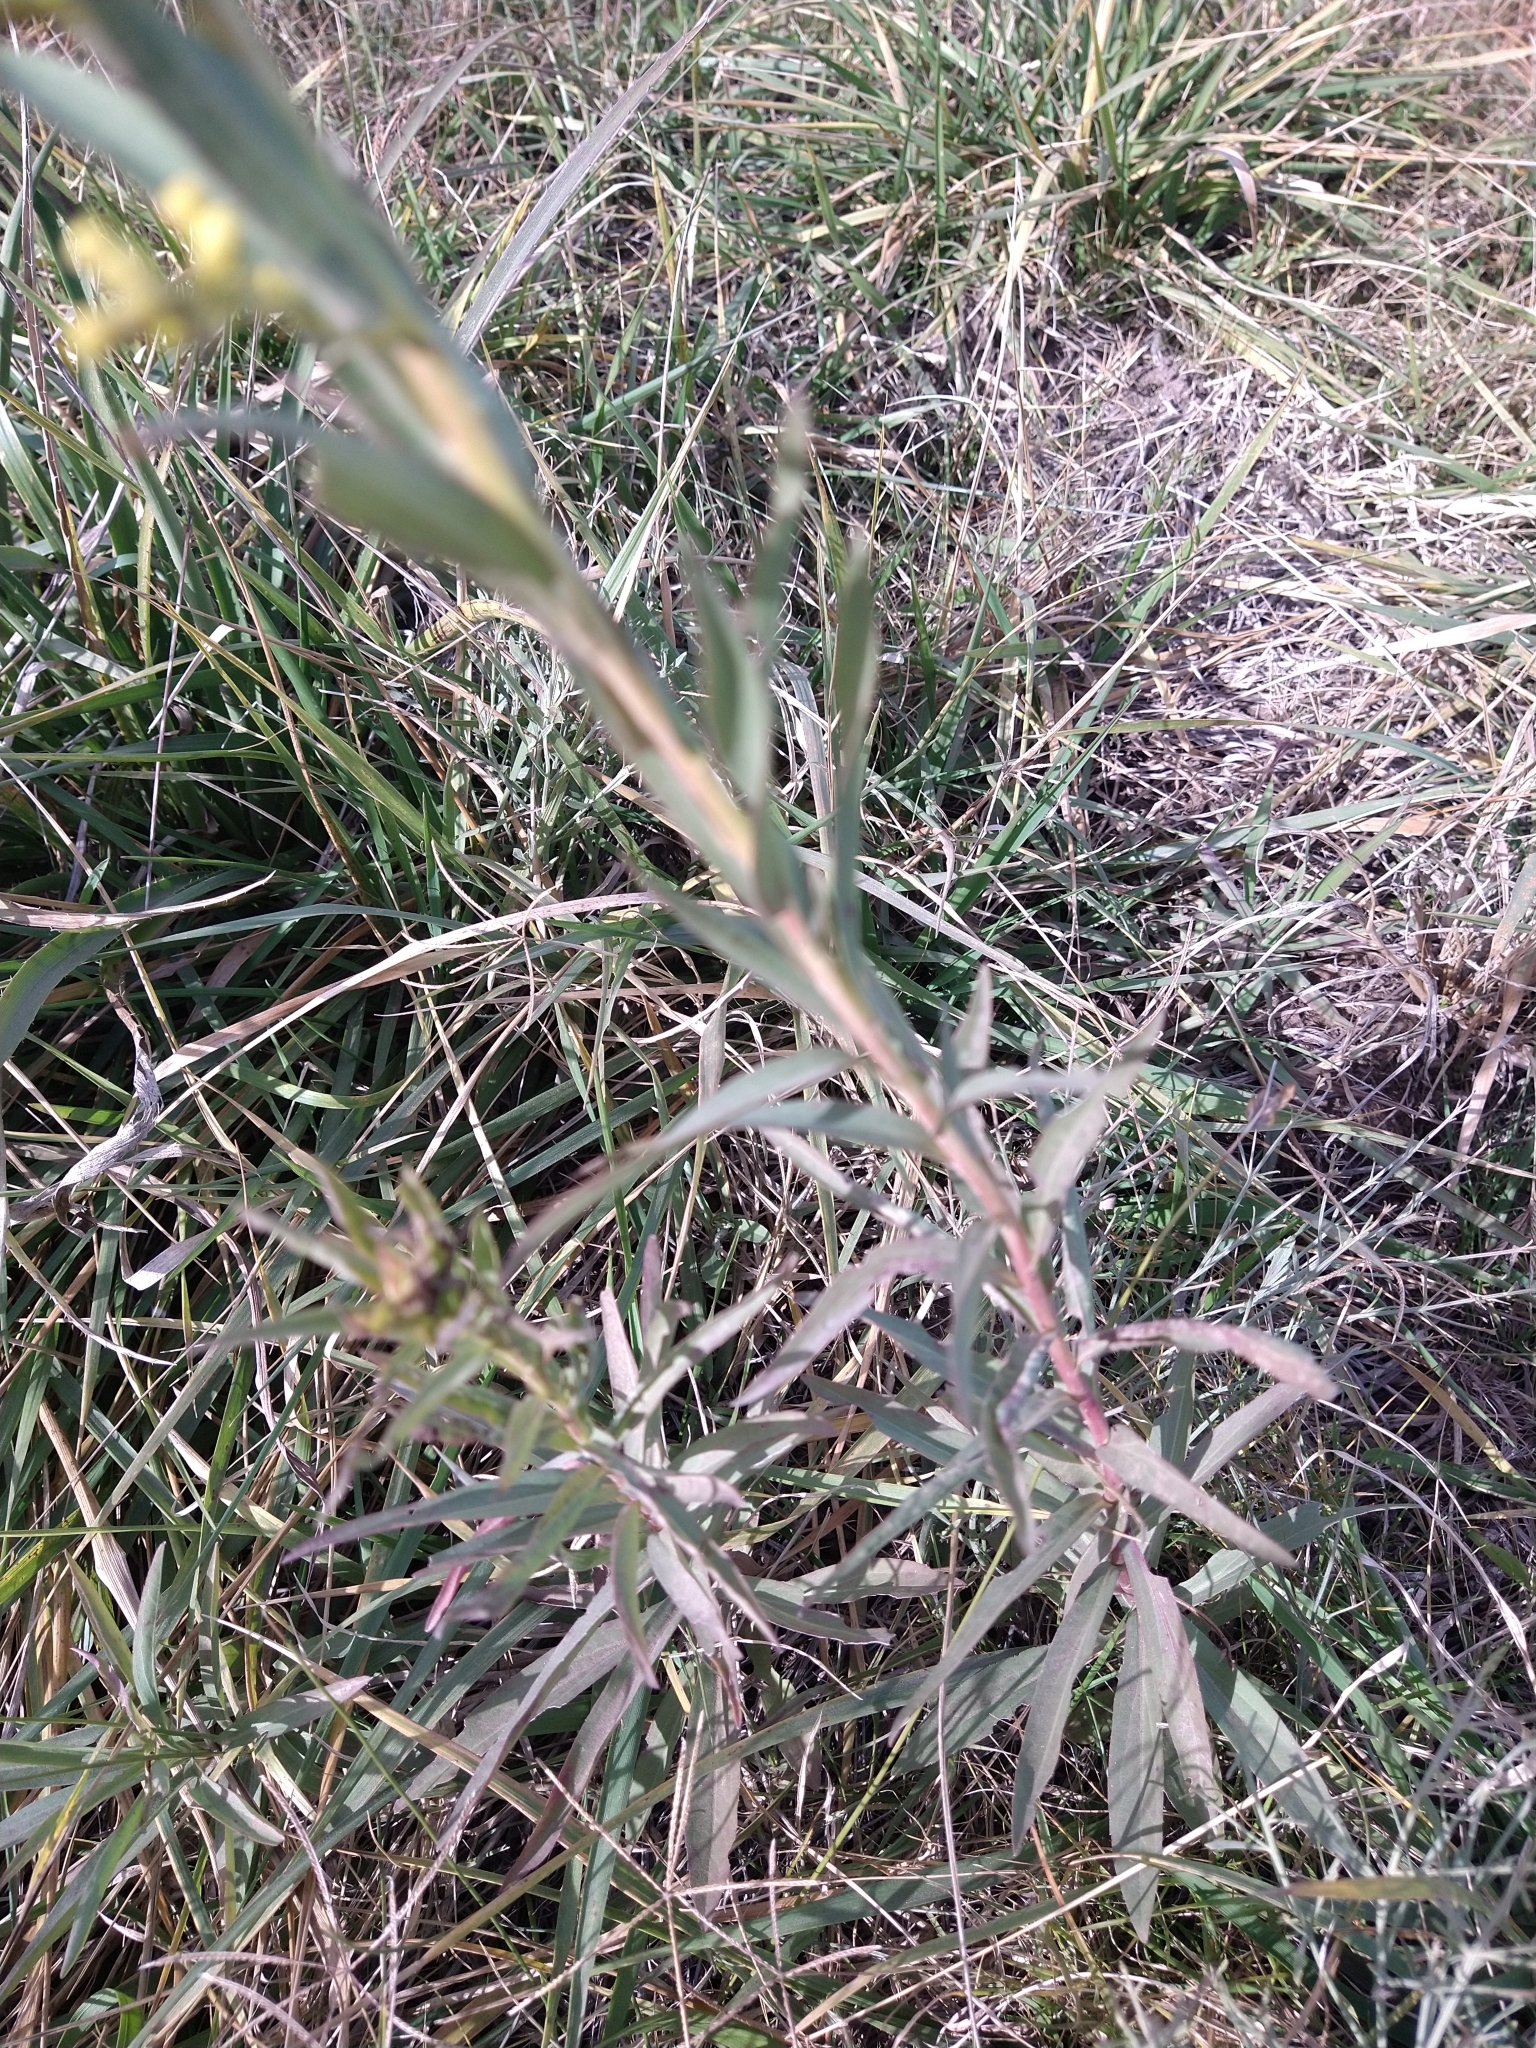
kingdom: Plantae
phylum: Tracheophyta
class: Magnoliopsida
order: Asterales
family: Asteraceae
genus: Solidago
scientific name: Solidago chilensis
